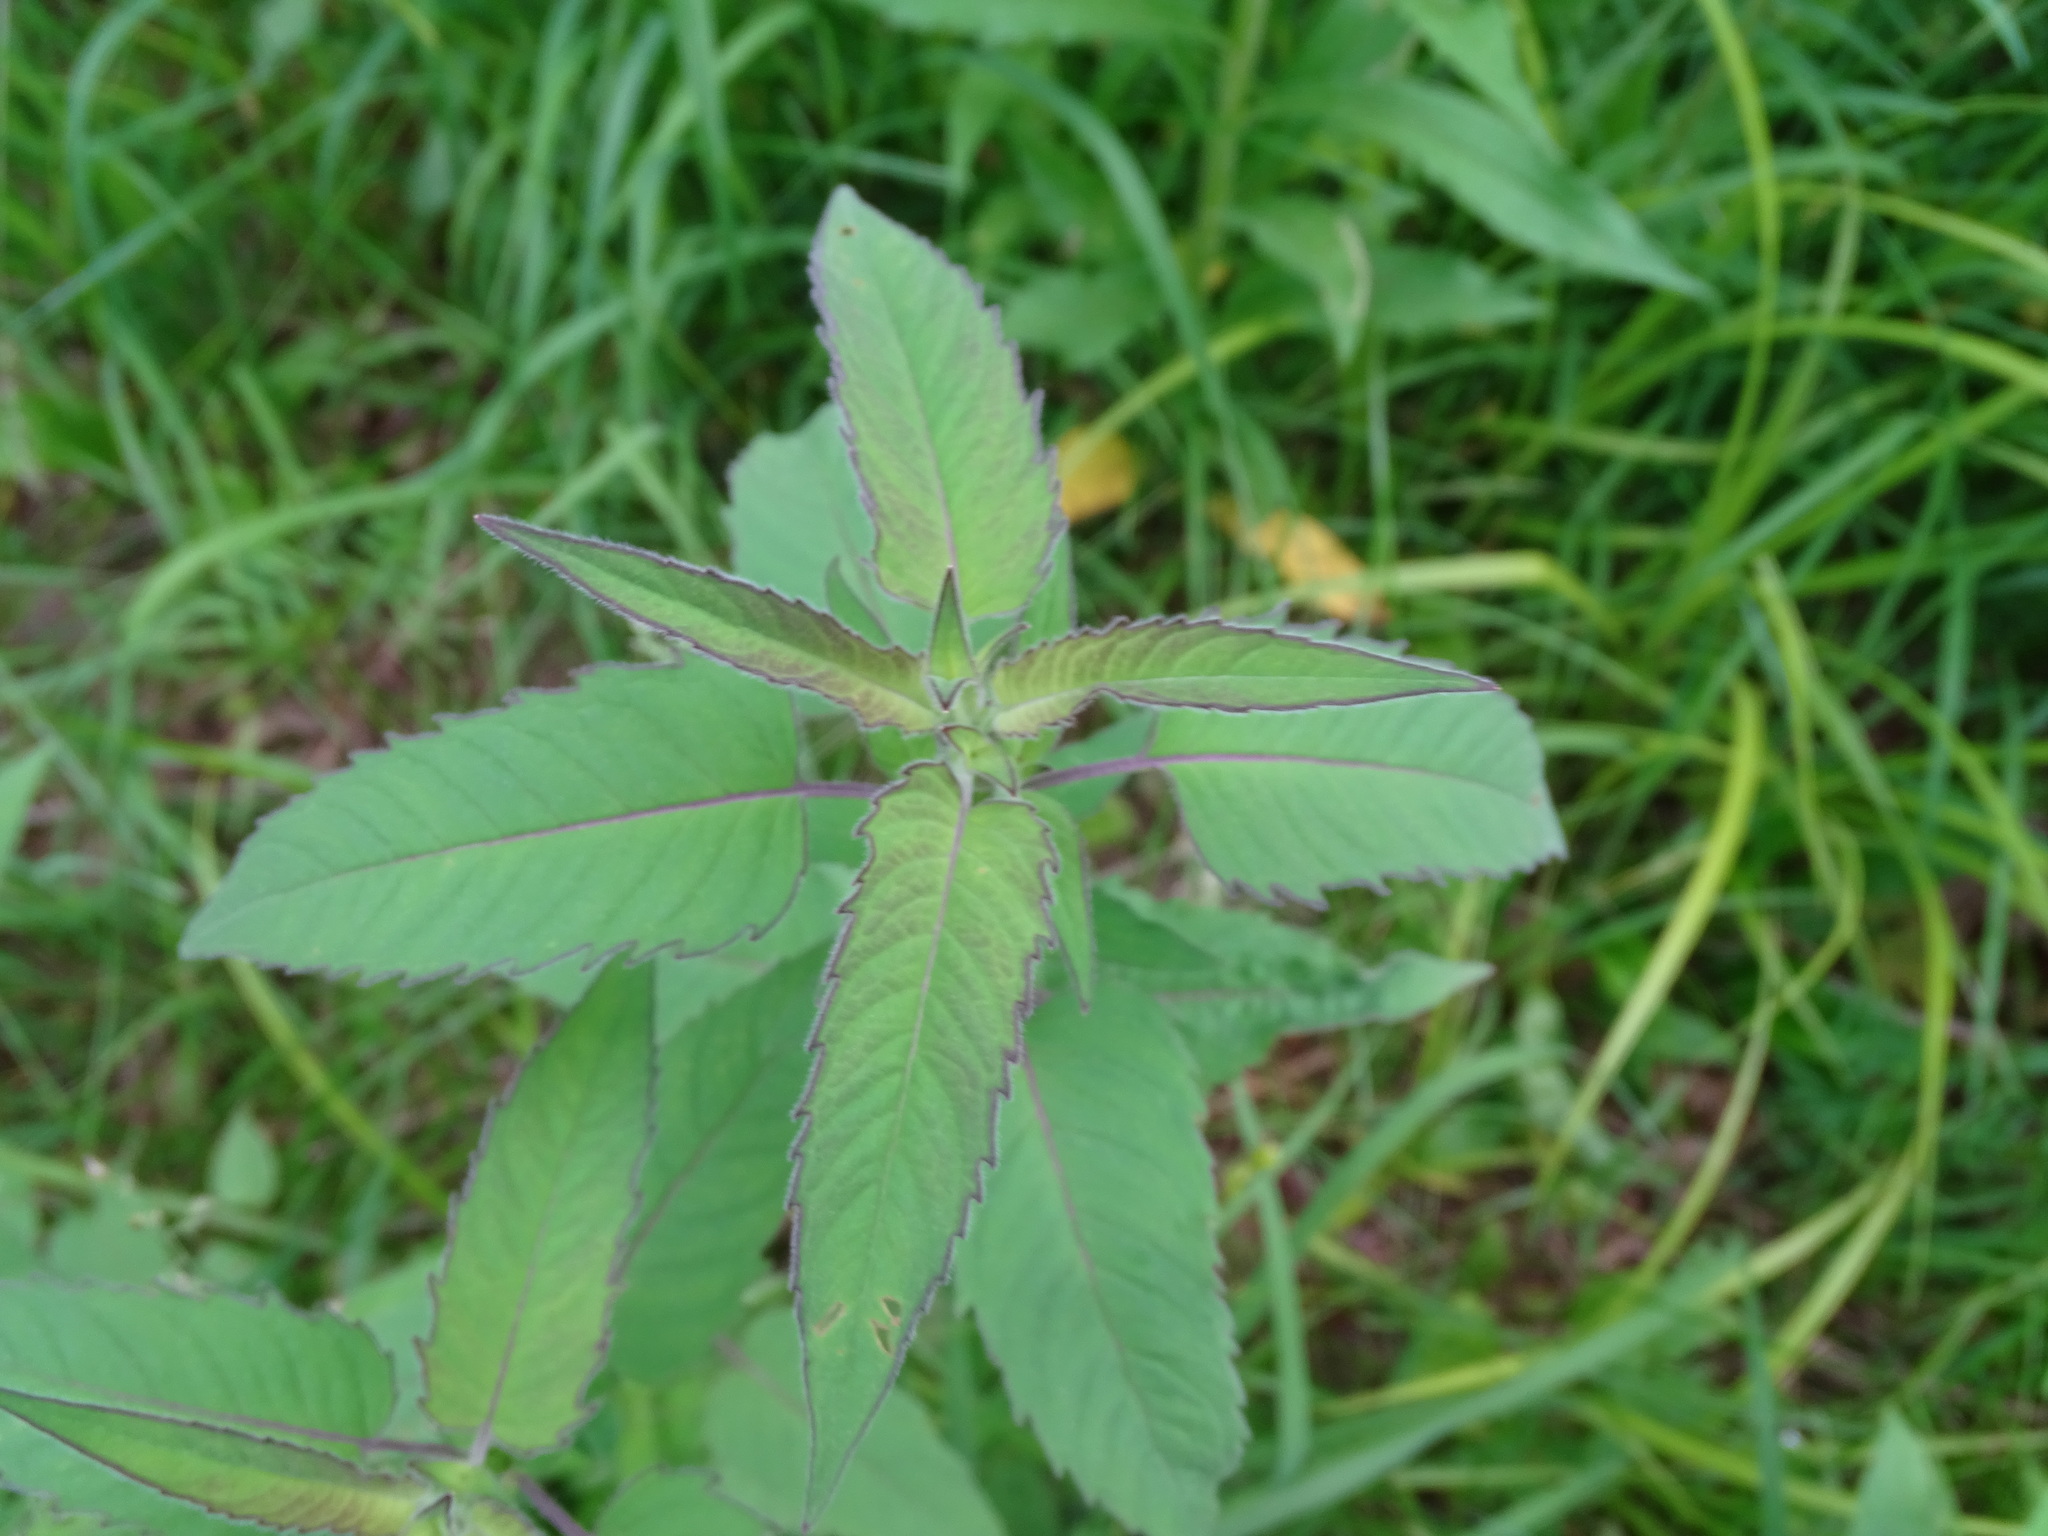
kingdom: Plantae
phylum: Tracheophyta
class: Magnoliopsida
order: Lamiales
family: Lamiaceae
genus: Monarda
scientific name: Monarda fistulosa
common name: Purple beebalm
